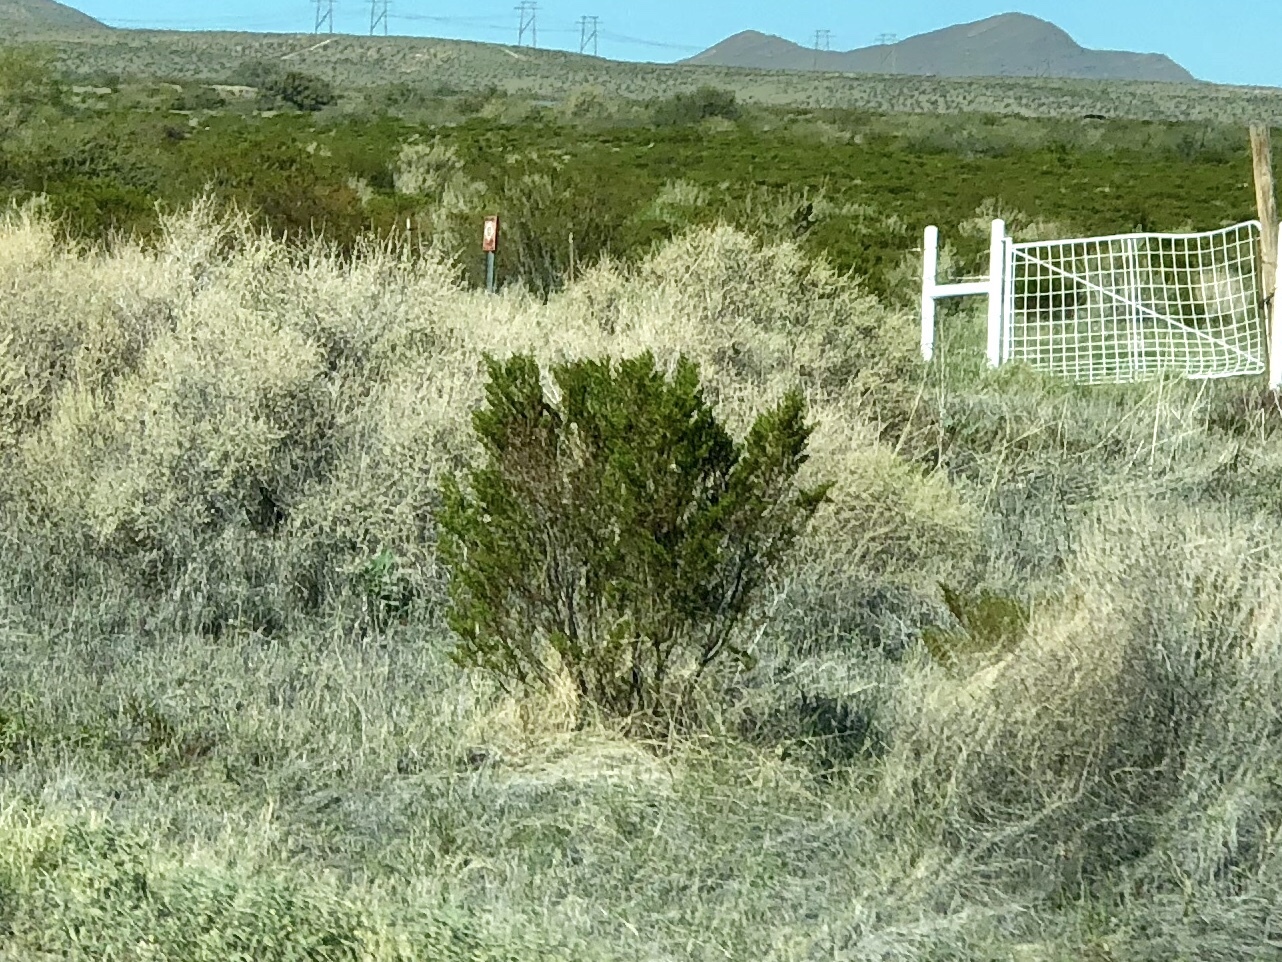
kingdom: Plantae
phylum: Tracheophyta
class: Magnoliopsida
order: Zygophyllales
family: Zygophyllaceae
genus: Larrea
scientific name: Larrea tridentata
